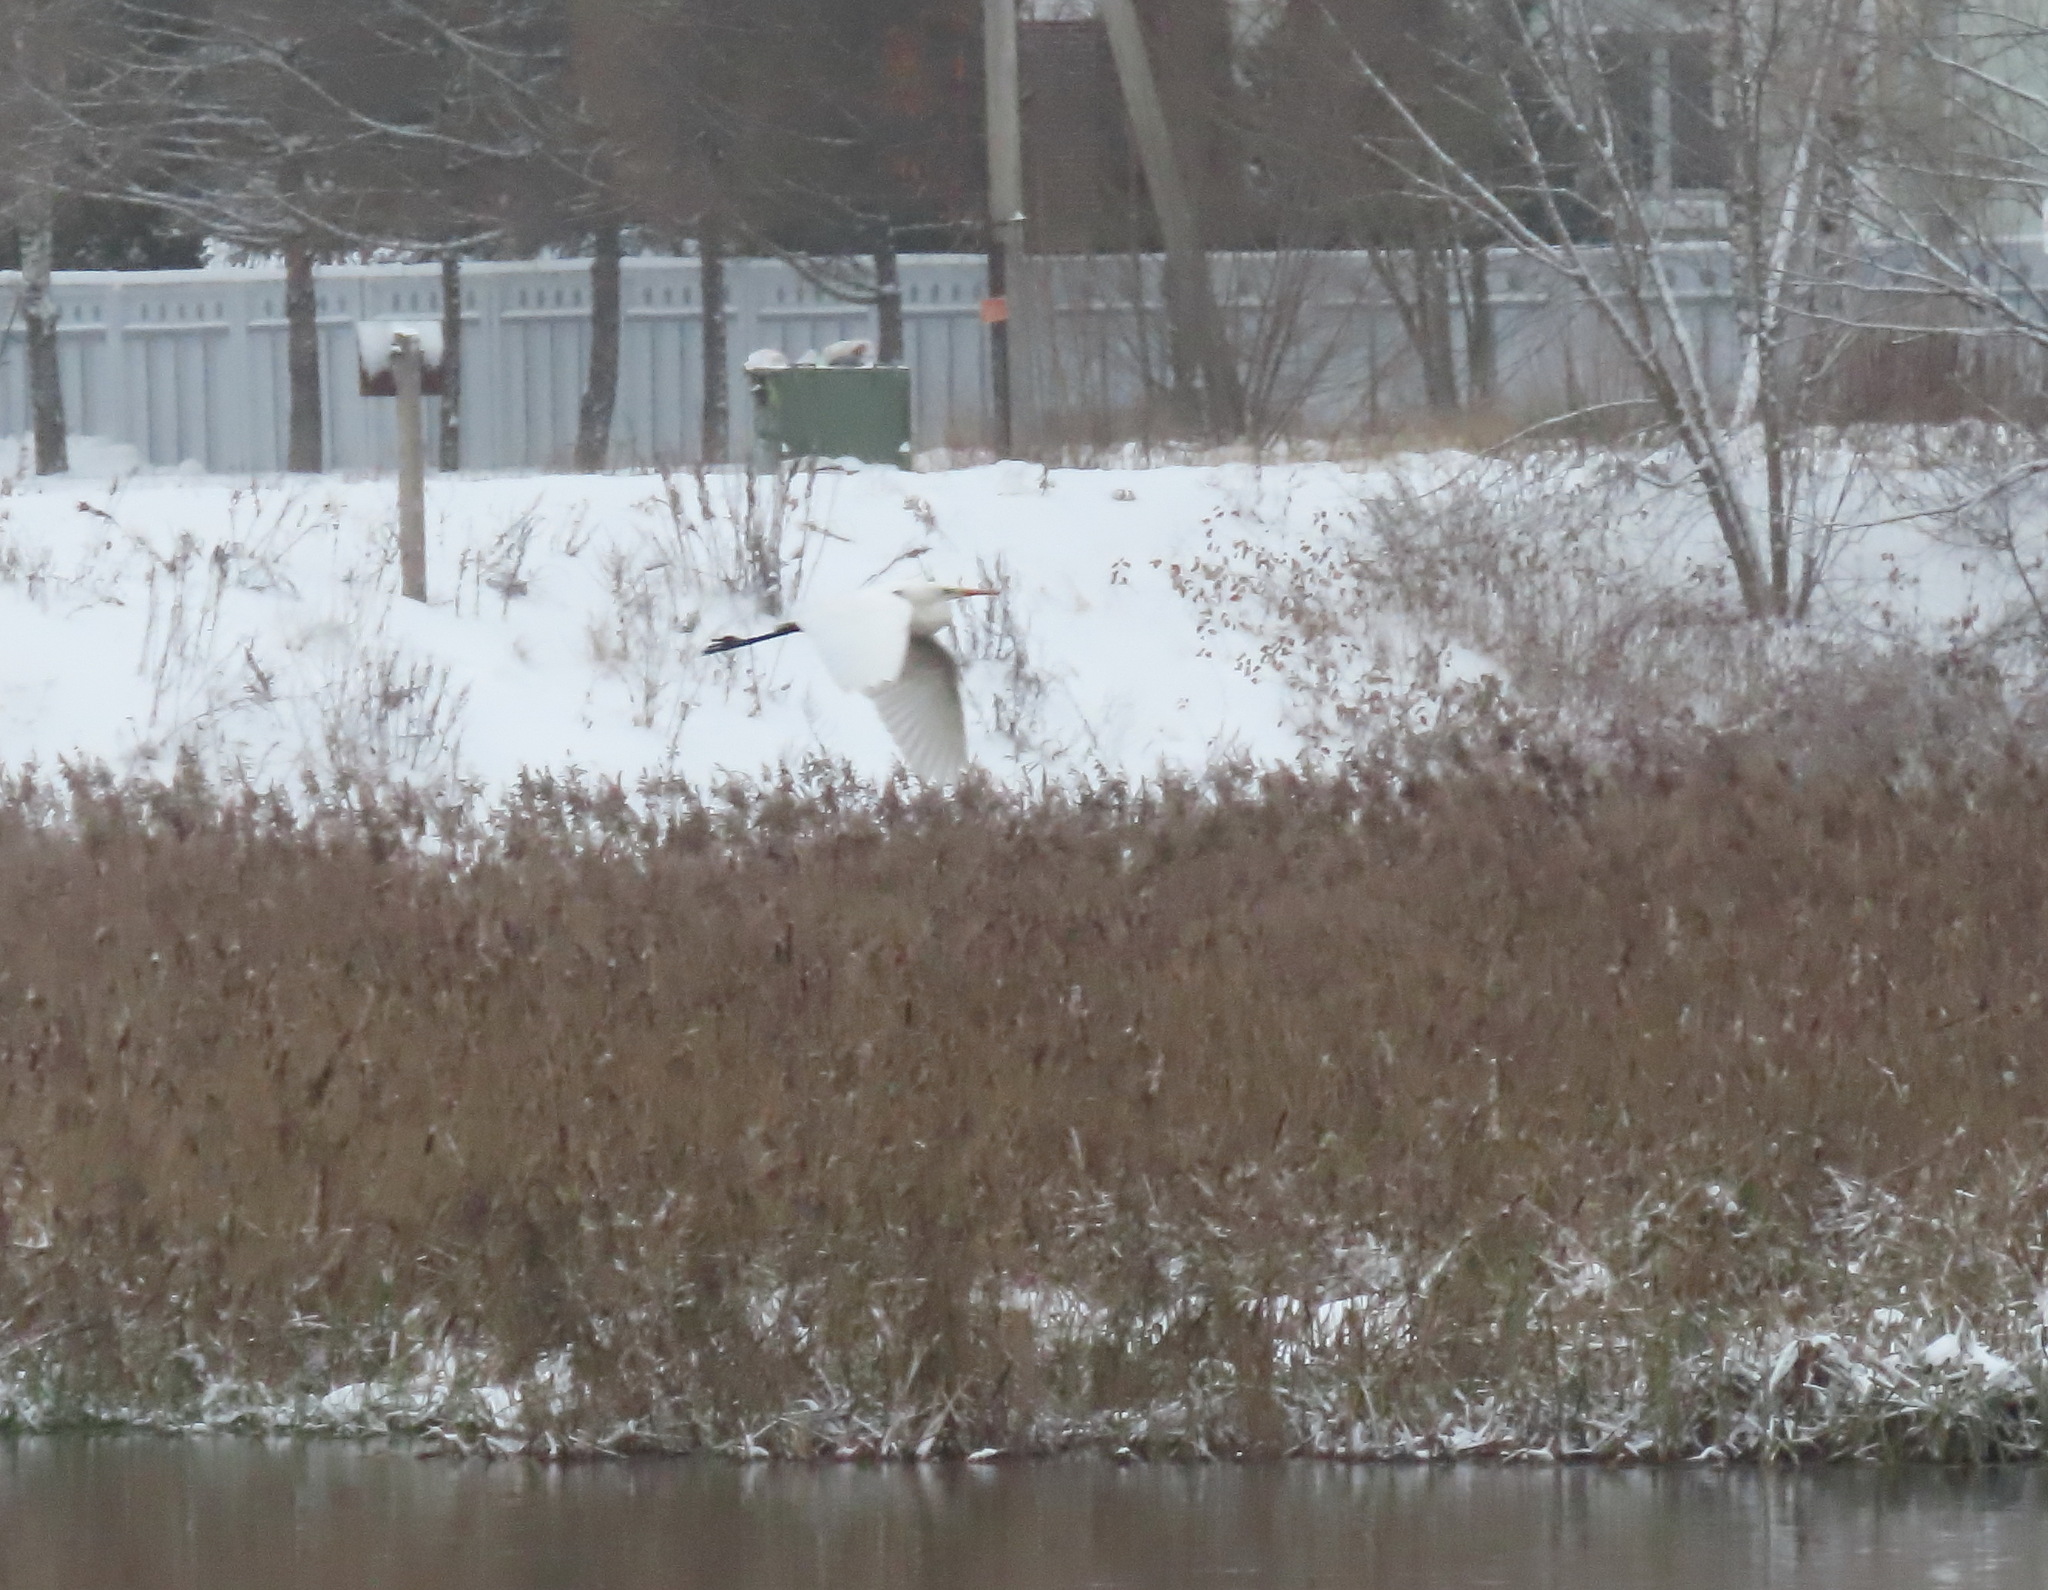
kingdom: Animalia
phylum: Chordata
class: Aves
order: Pelecaniformes
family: Ardeidae
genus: Ardea
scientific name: Ardea alba
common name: Great egret
